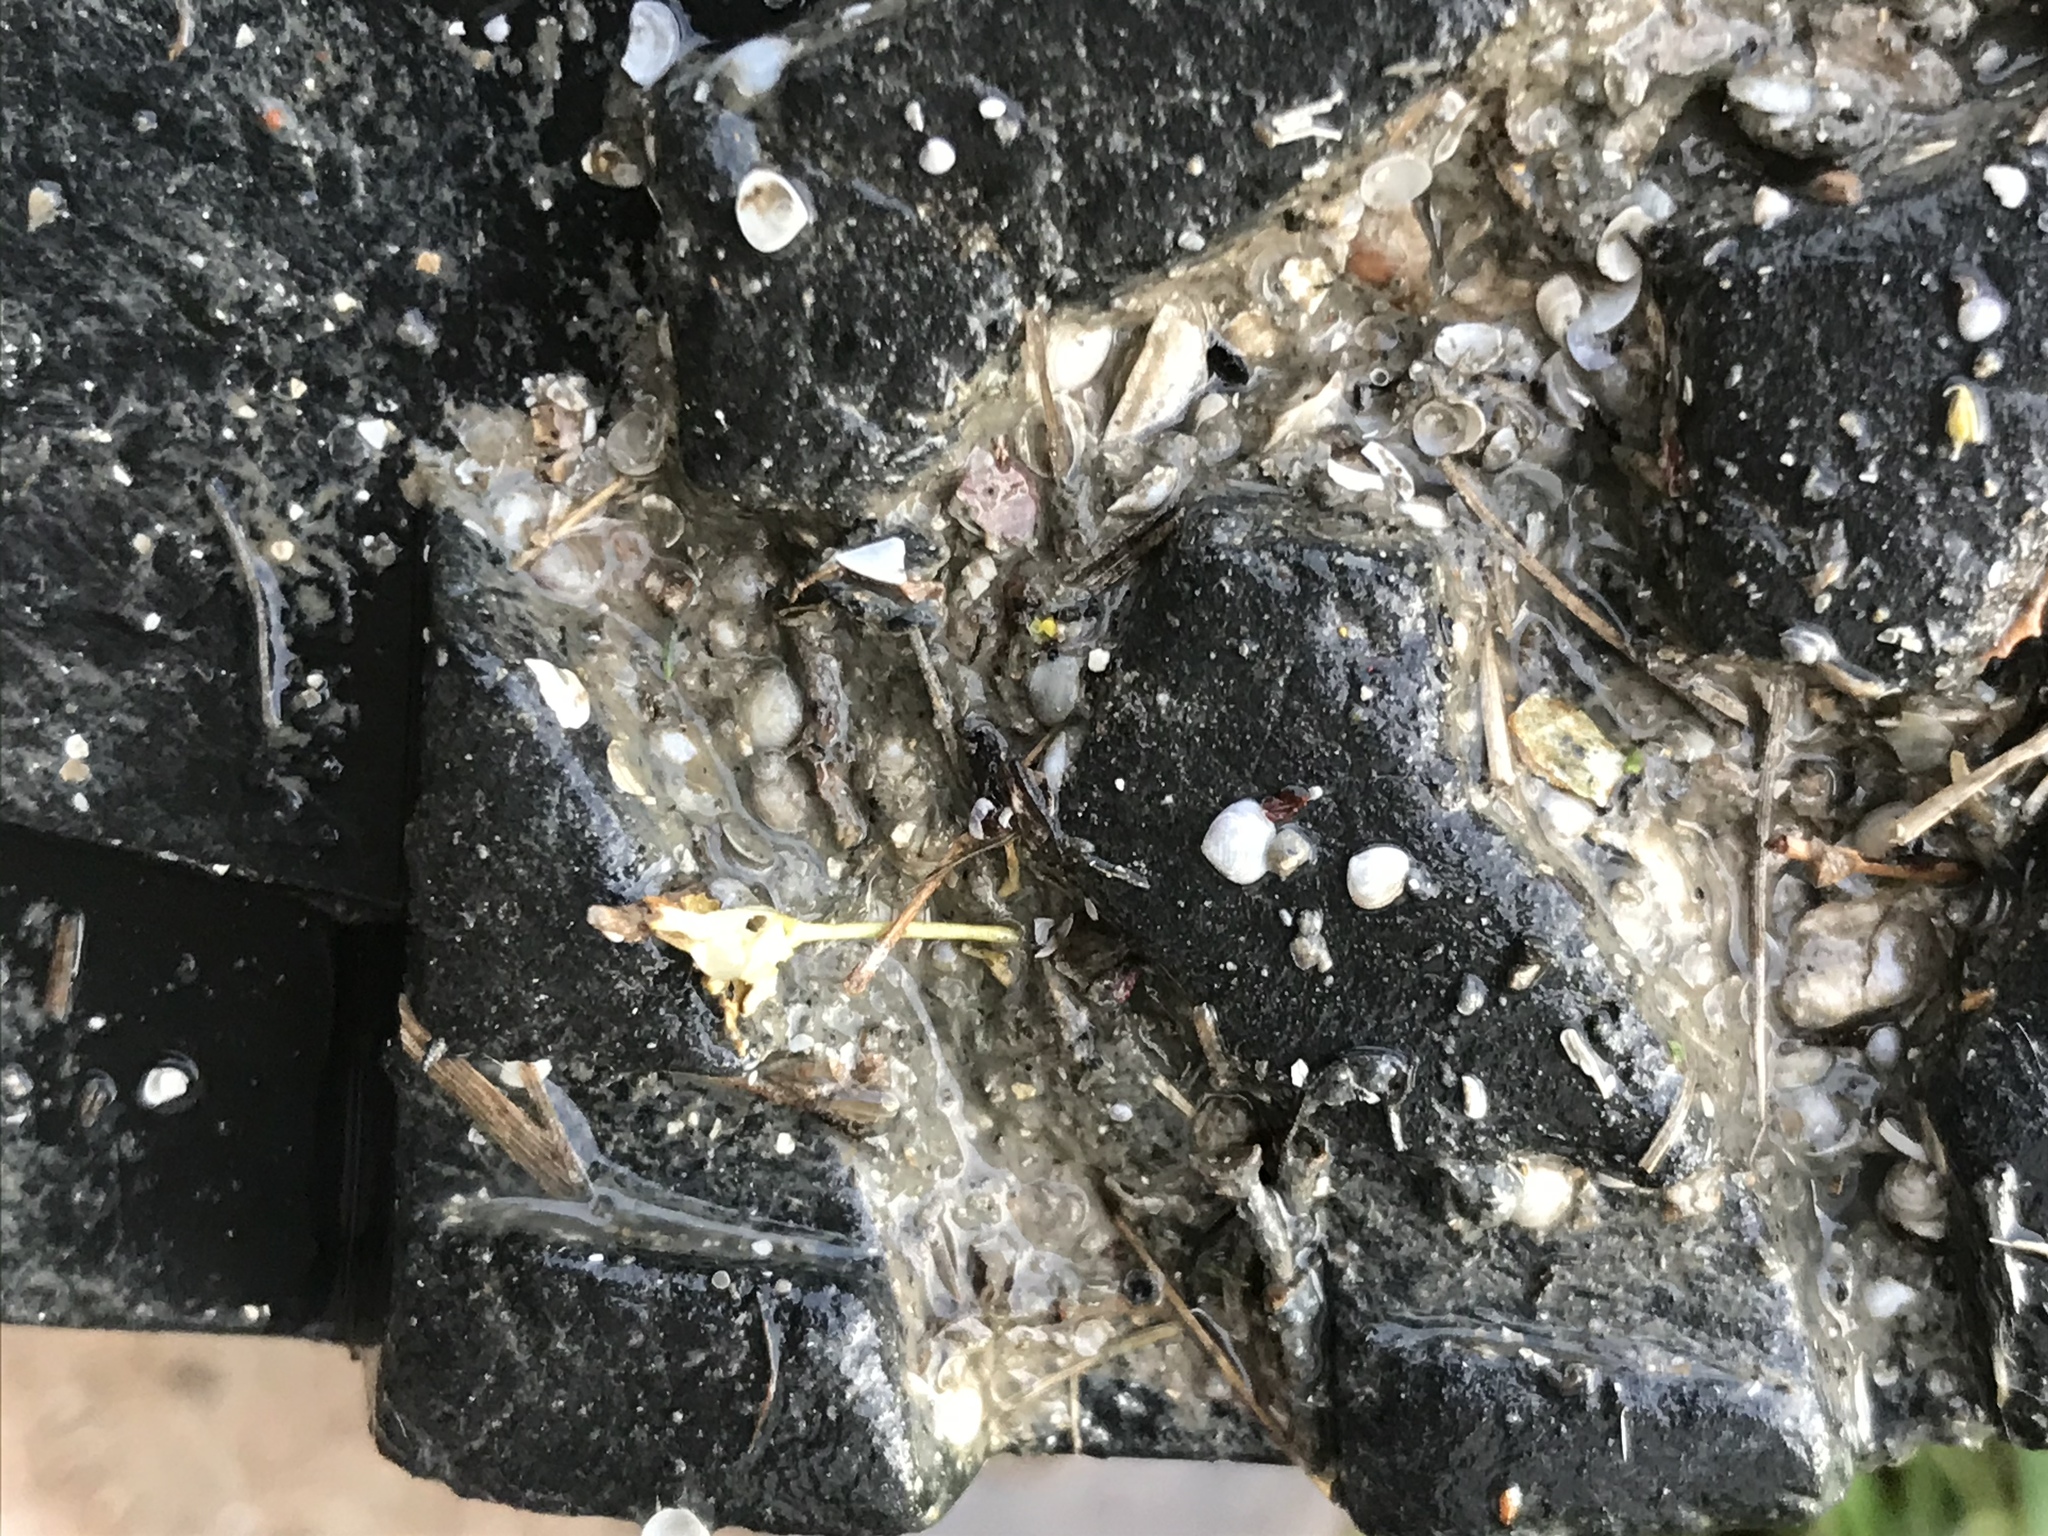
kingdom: Animalia
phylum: Mollusca
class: Bivalvia
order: Venerida
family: Veneridae
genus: Gemma
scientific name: Gemma gemma
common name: Amethyst gemclam
